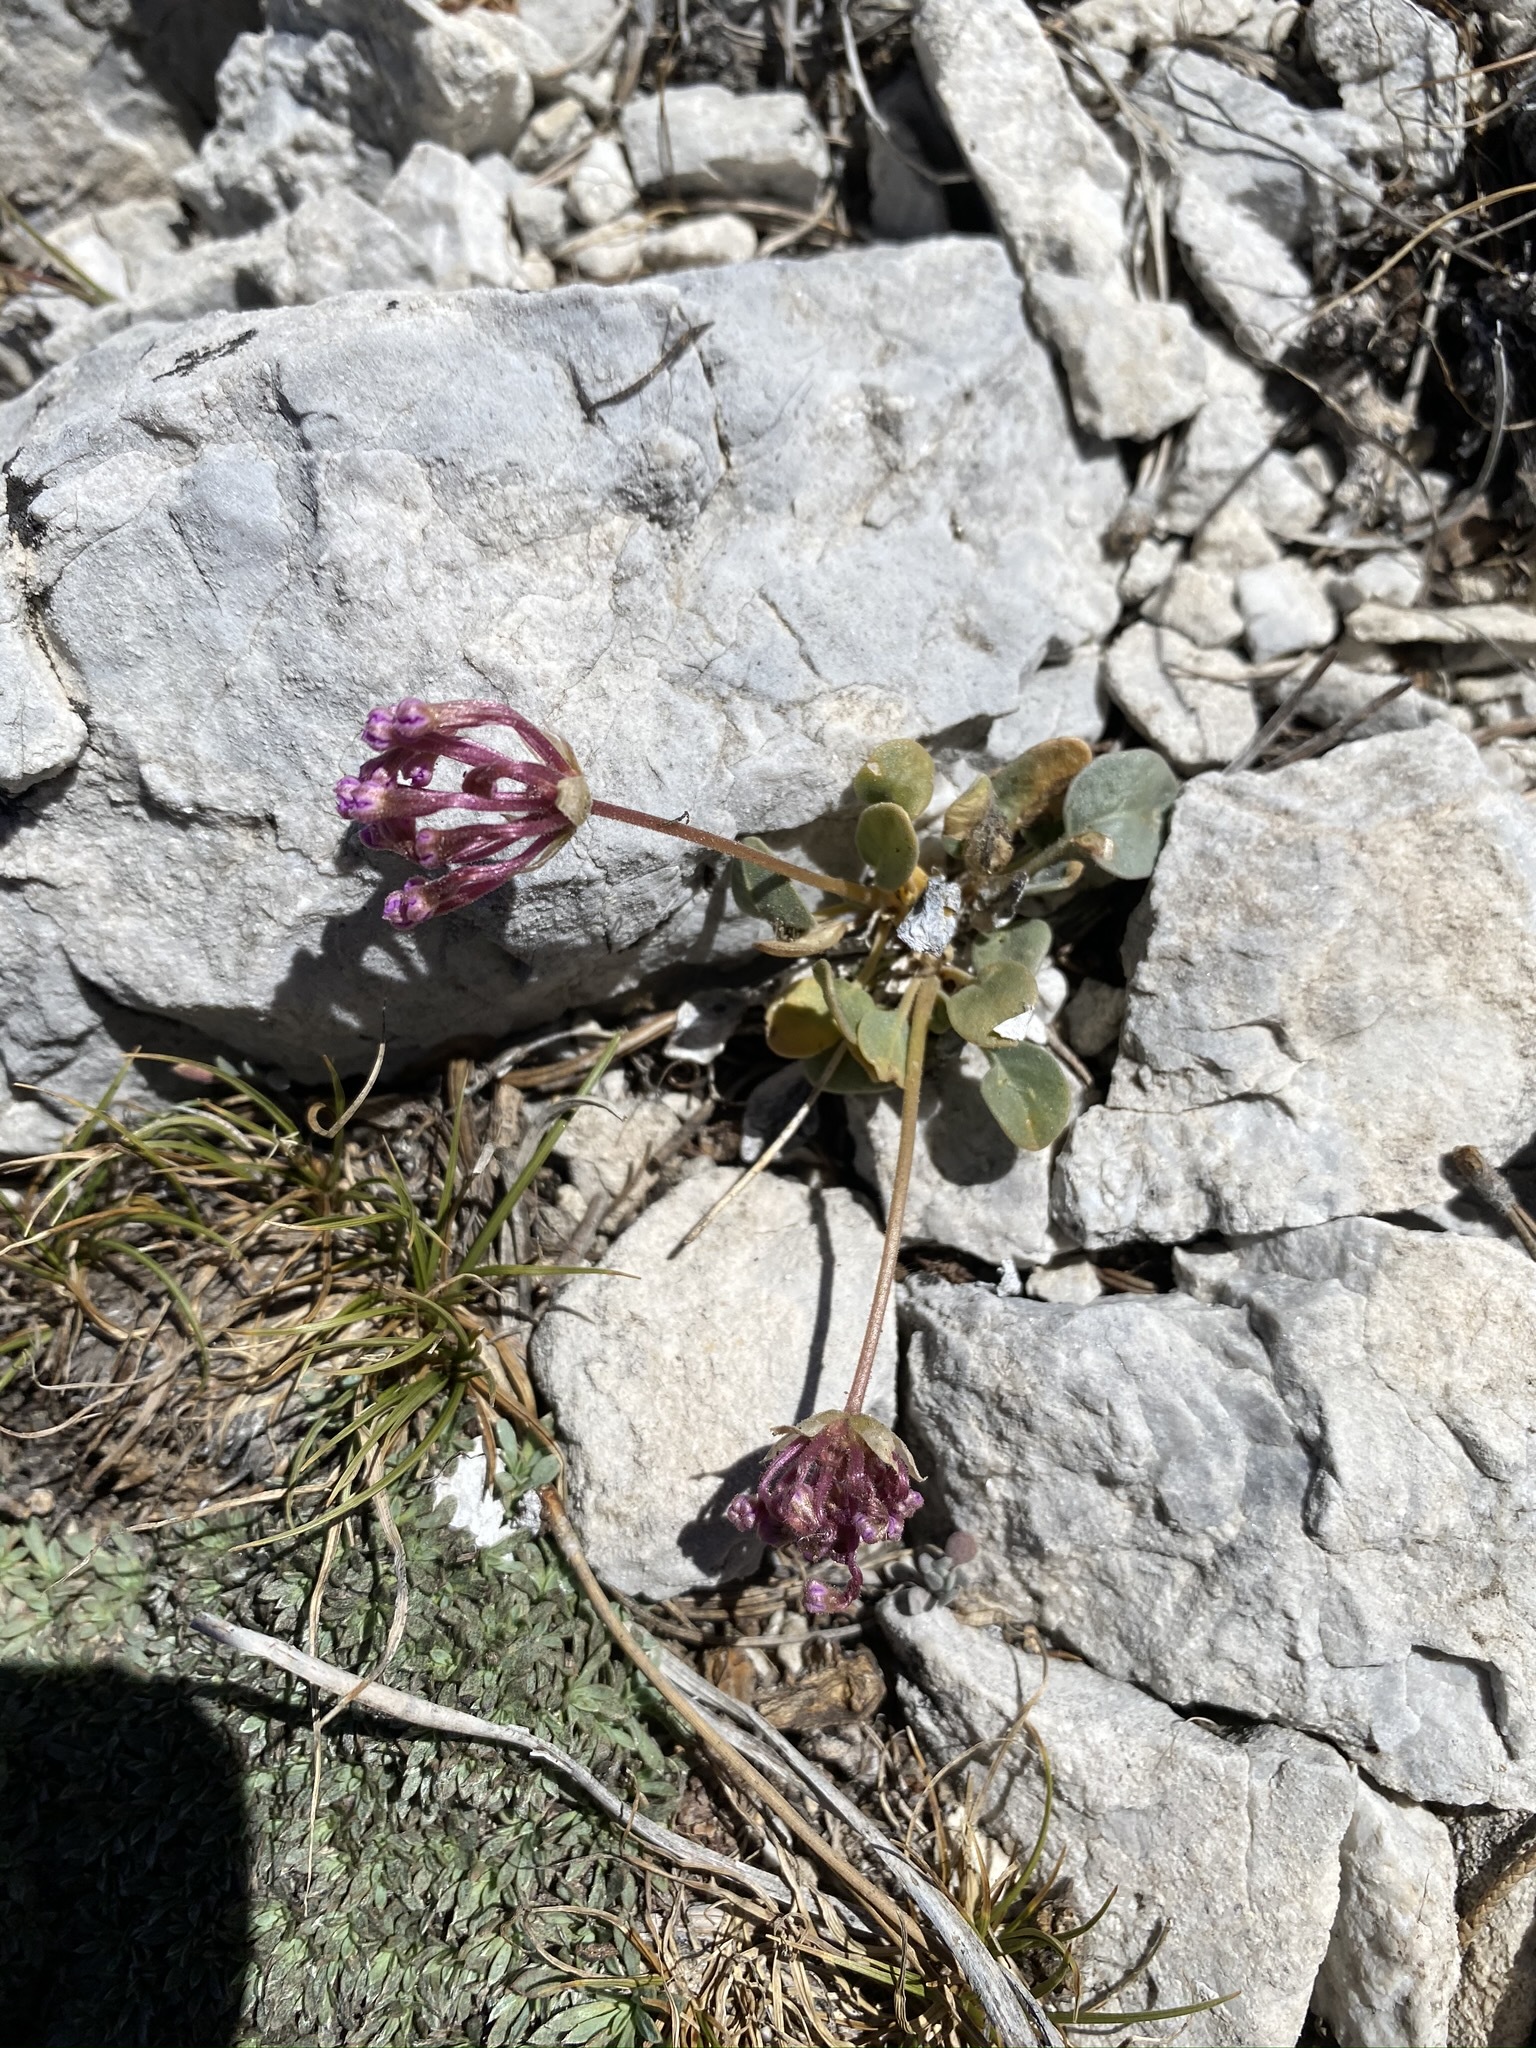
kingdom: Plantae
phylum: Tracheophyta
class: Magnoliopsida
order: Caryophyllales
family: Nyctaginaceae
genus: Abronia
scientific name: Abronia nana
